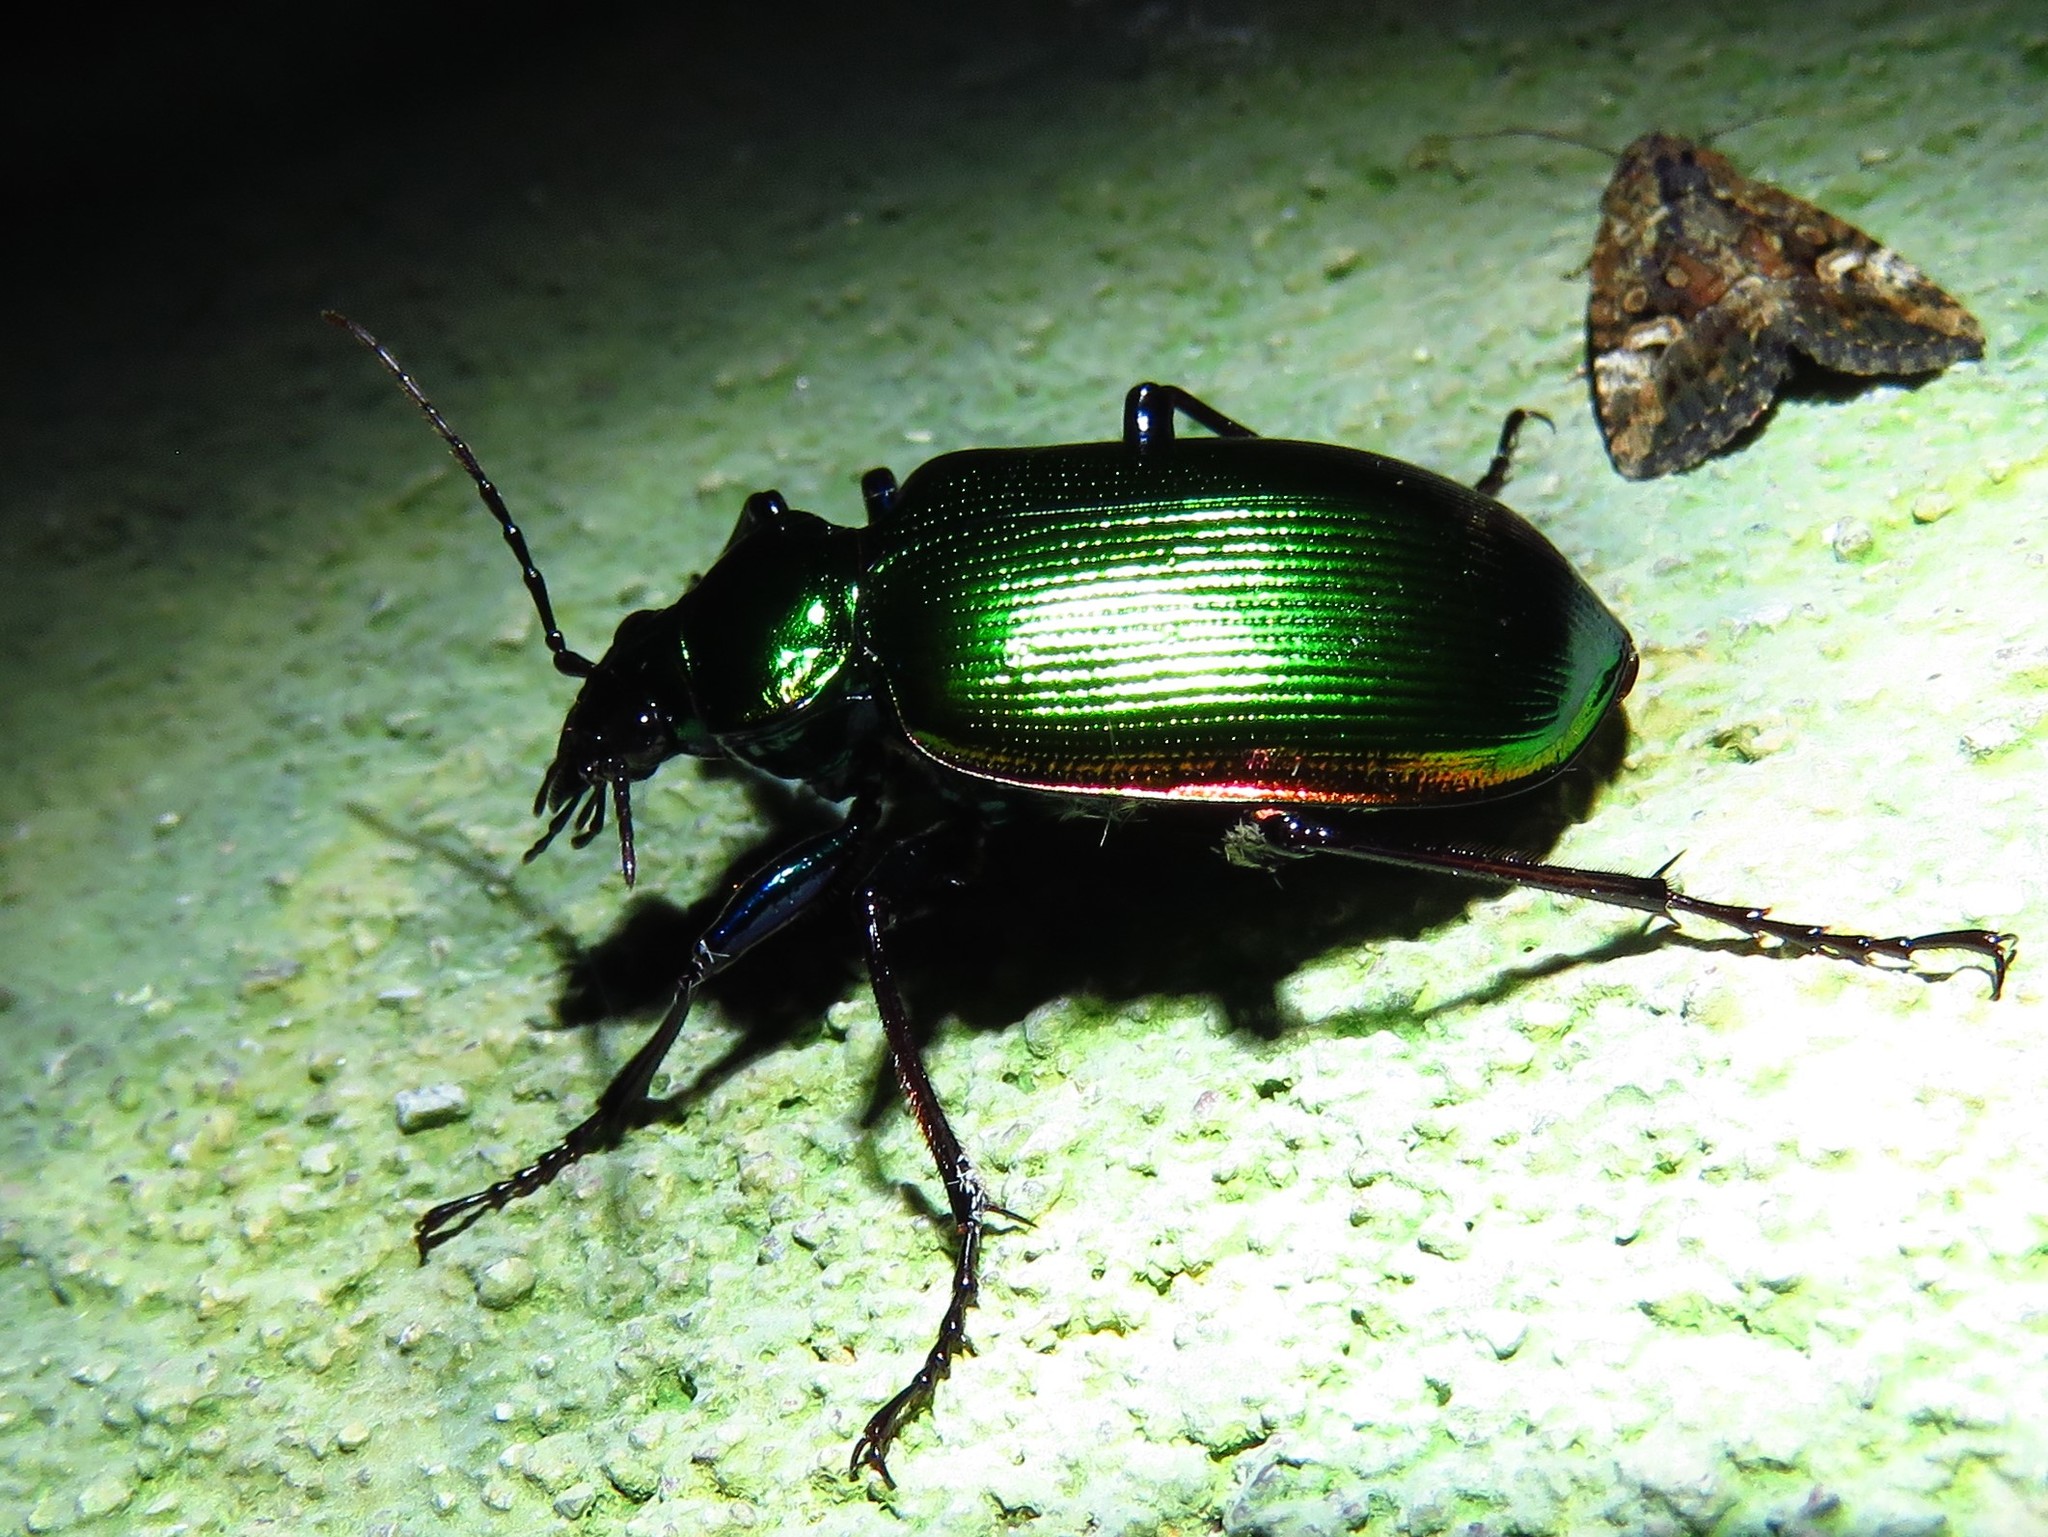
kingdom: Animalia
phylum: Arthropoda
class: Insecta
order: Coleoptera
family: Carabidae
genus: Calosoma
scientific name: Calosoma aurocinctum
